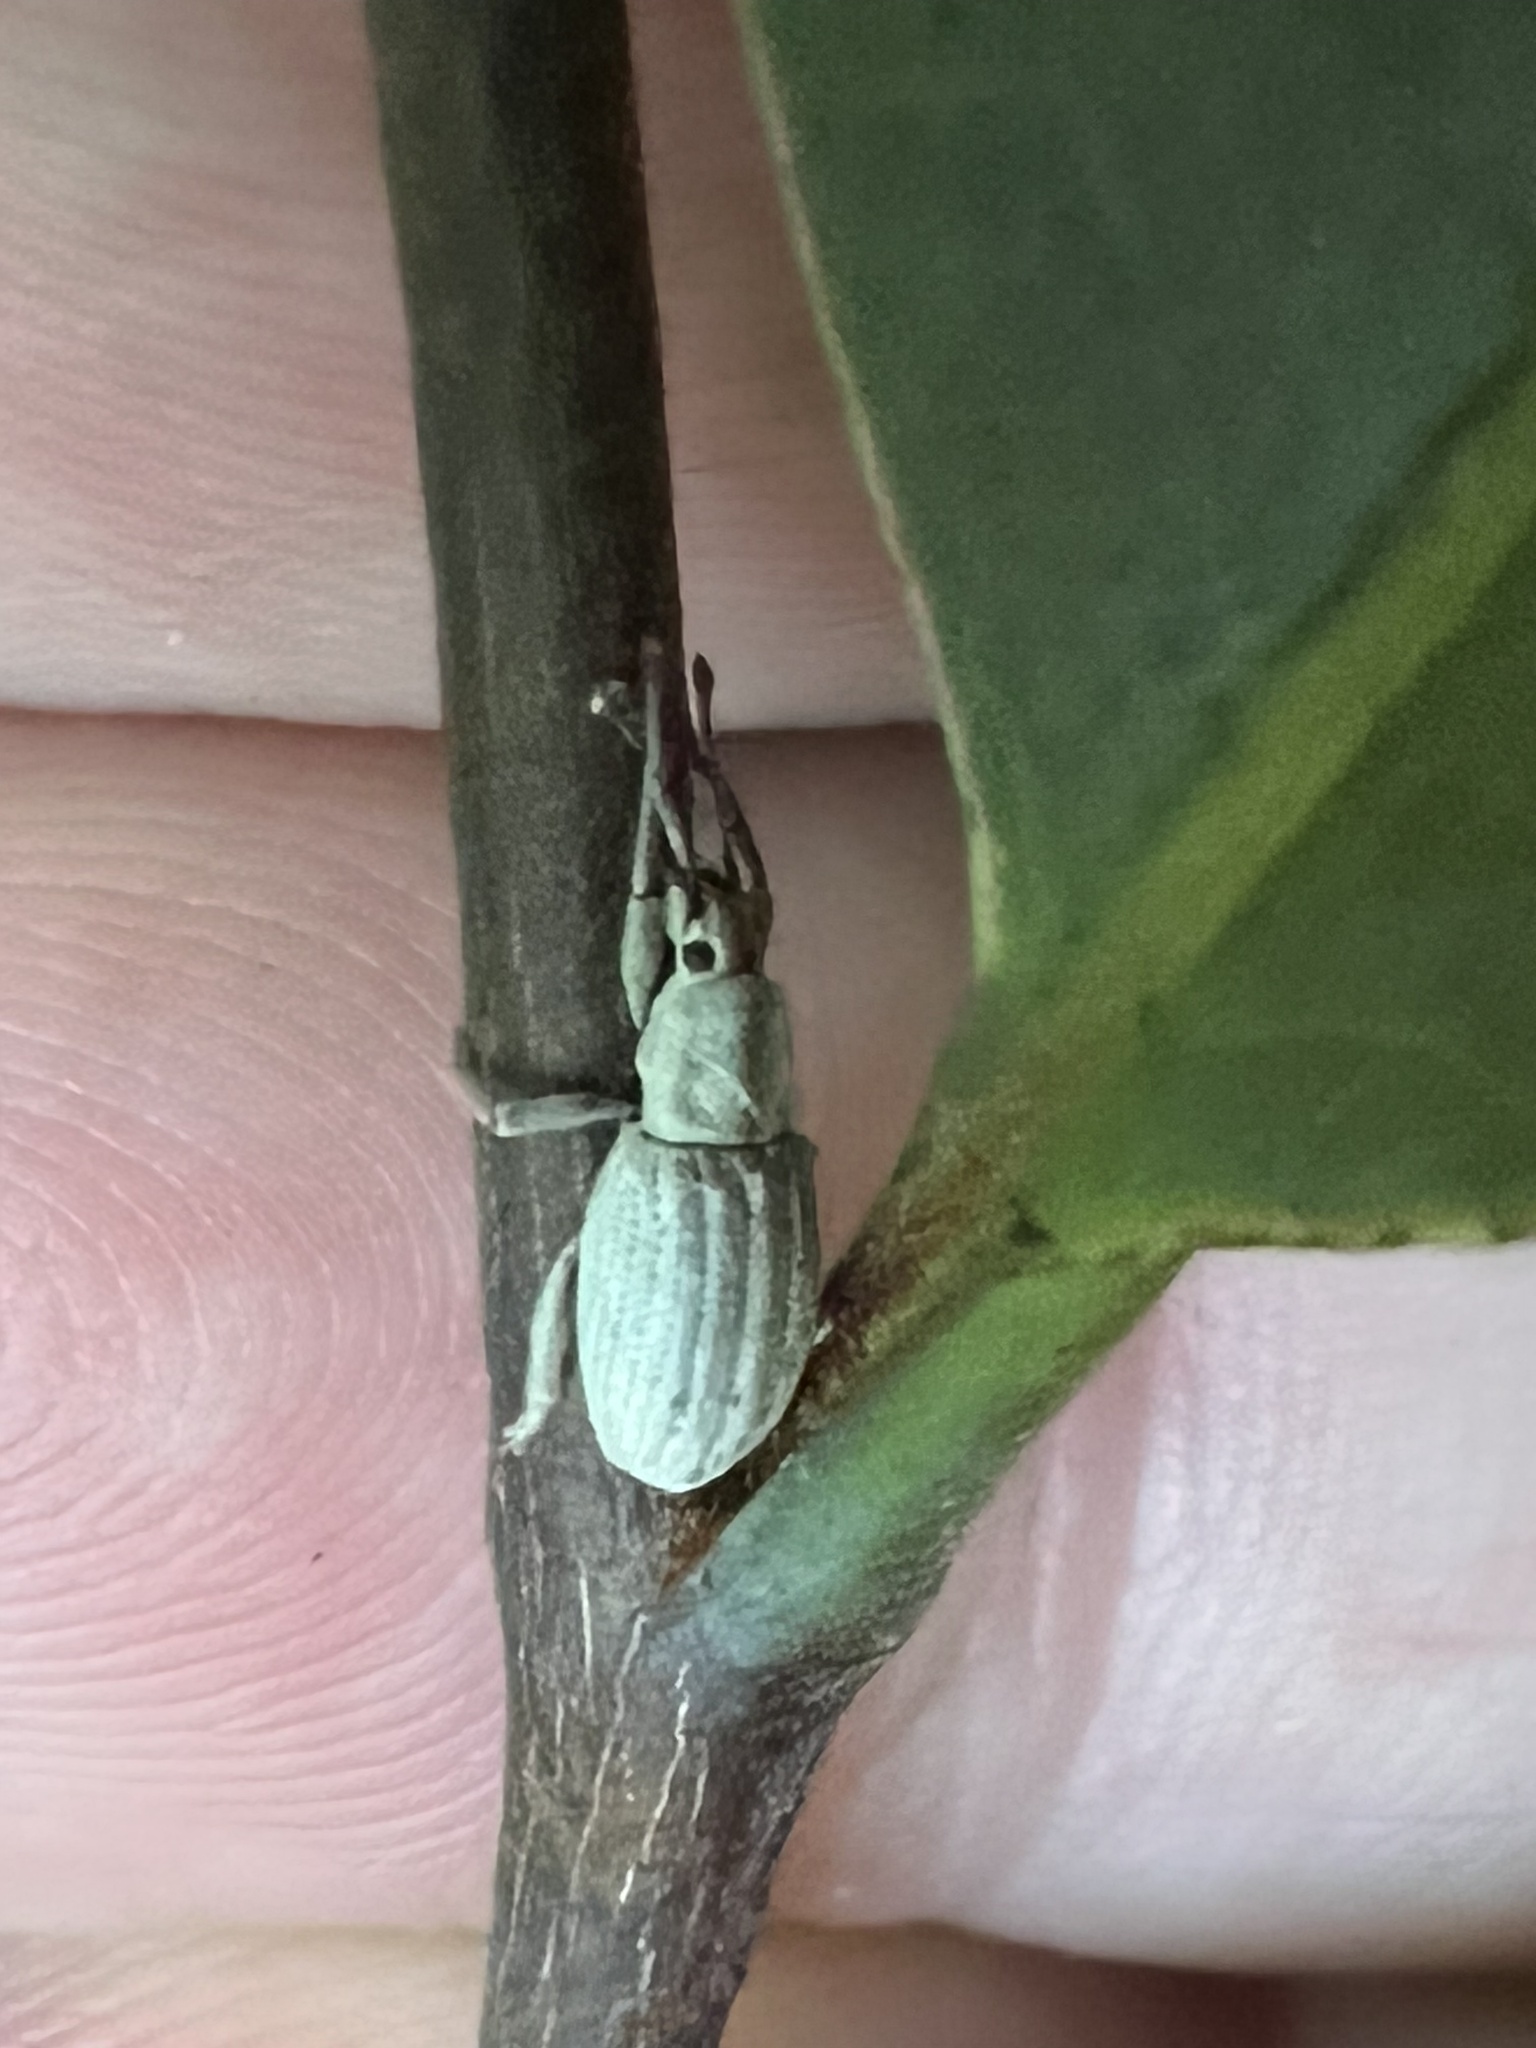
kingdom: Animalia
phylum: Arthropoda
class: Insecta
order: Coleoptera
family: Curculionidae
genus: Aphrastus
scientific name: Aphrastus taeniatus
